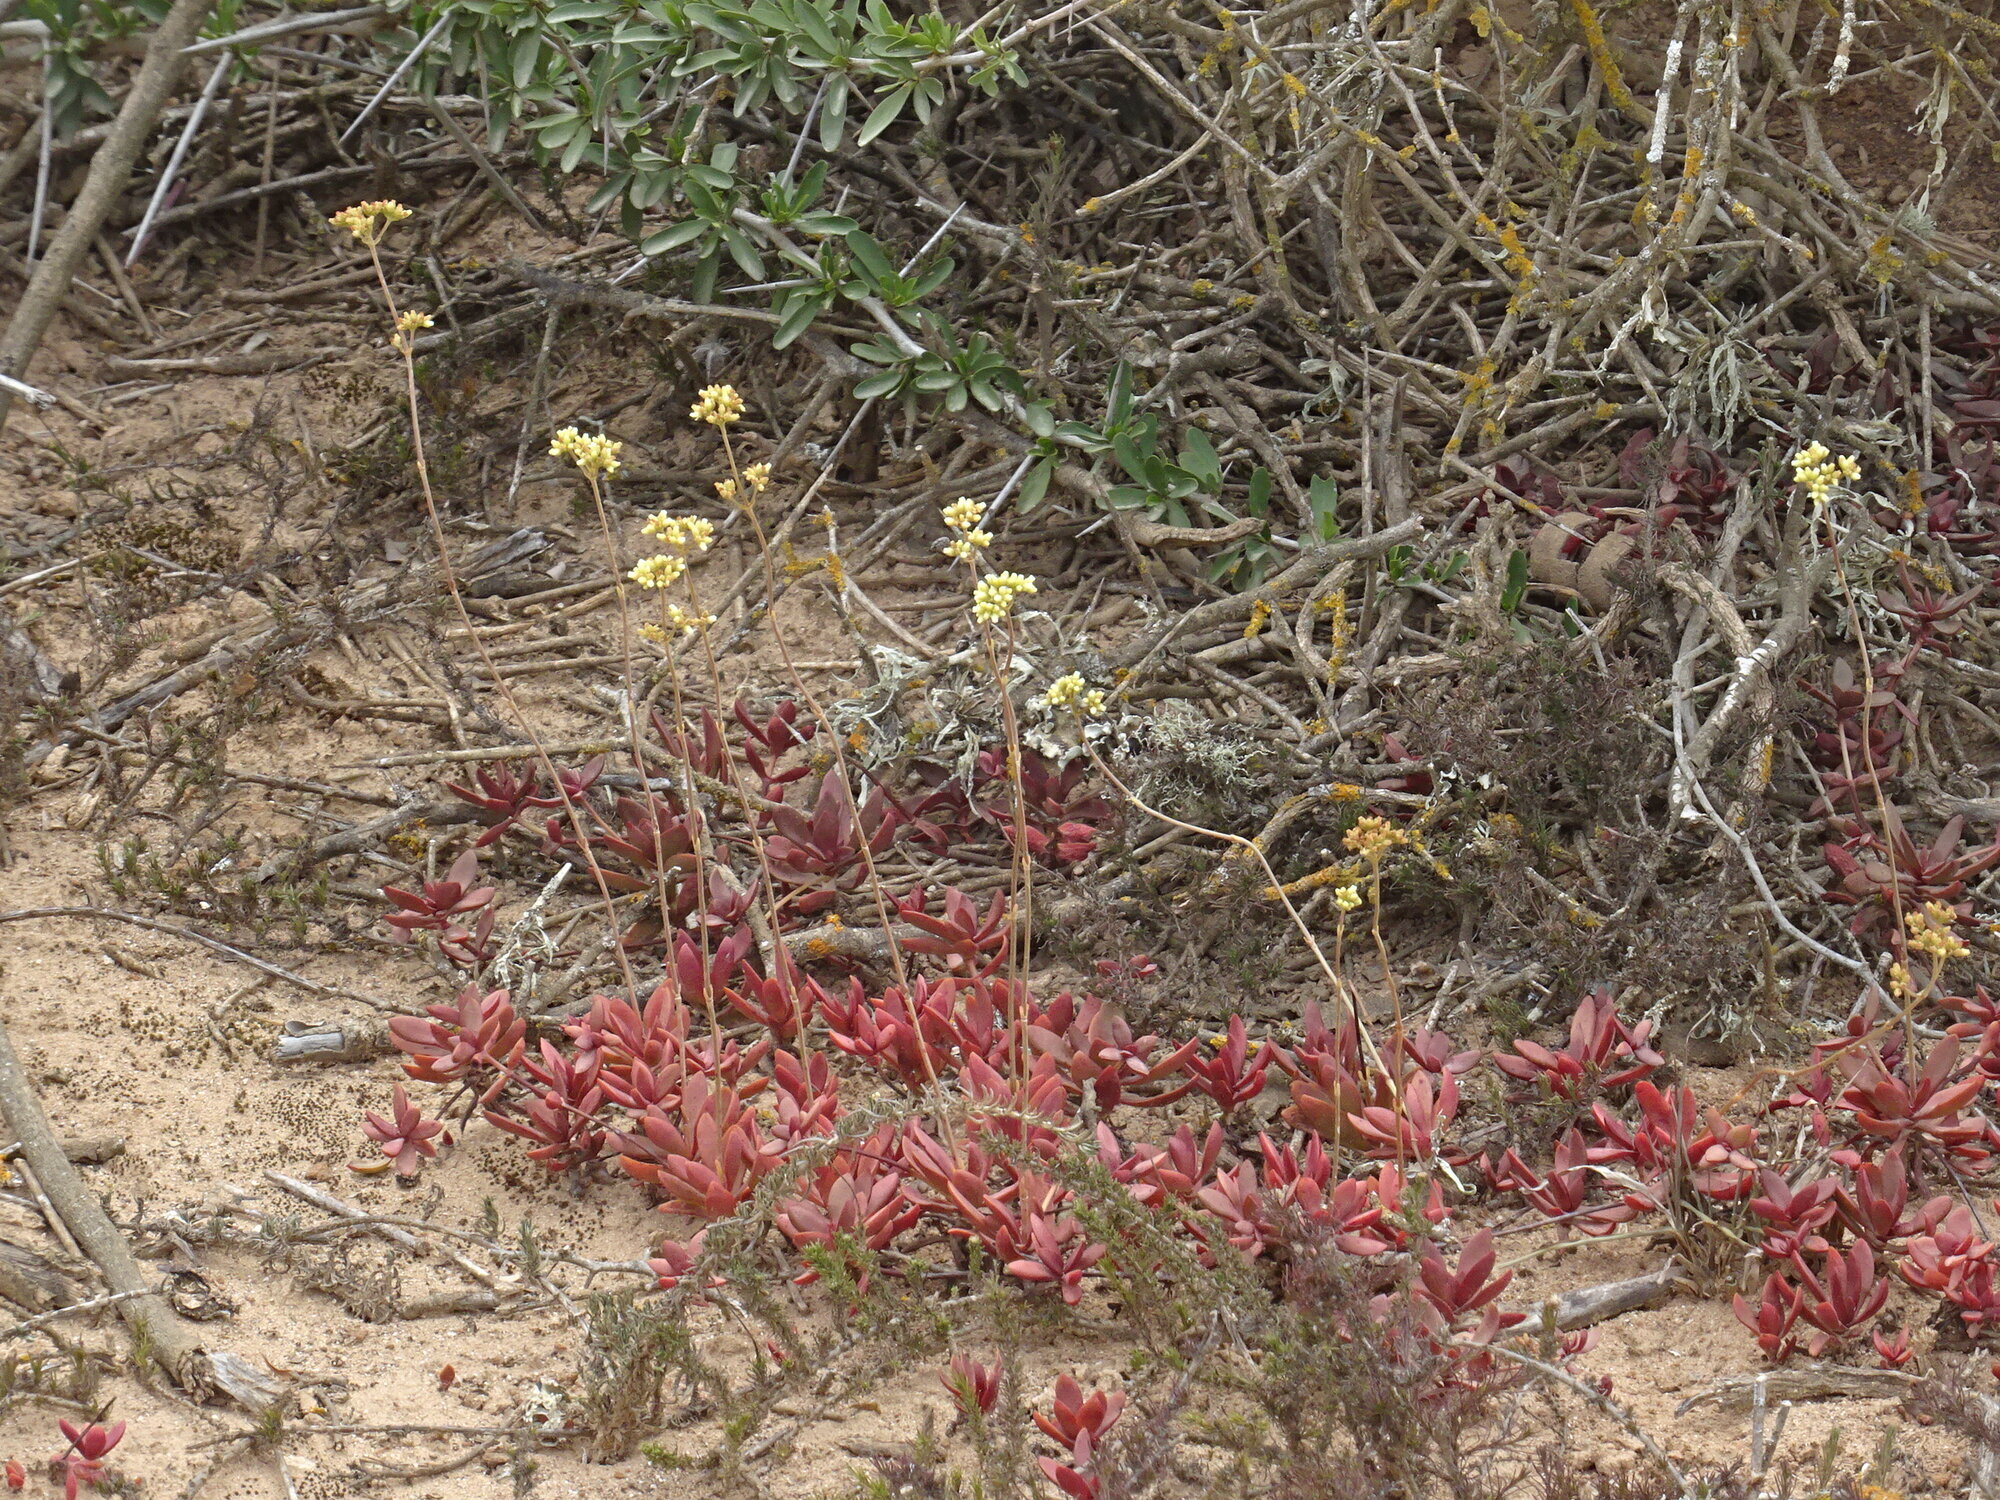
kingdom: Plantae
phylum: Tracheophyta
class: Magnoliopsida
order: Saxifragales
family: Crassulaceae
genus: Crassula
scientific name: Crassula nudicaulis
